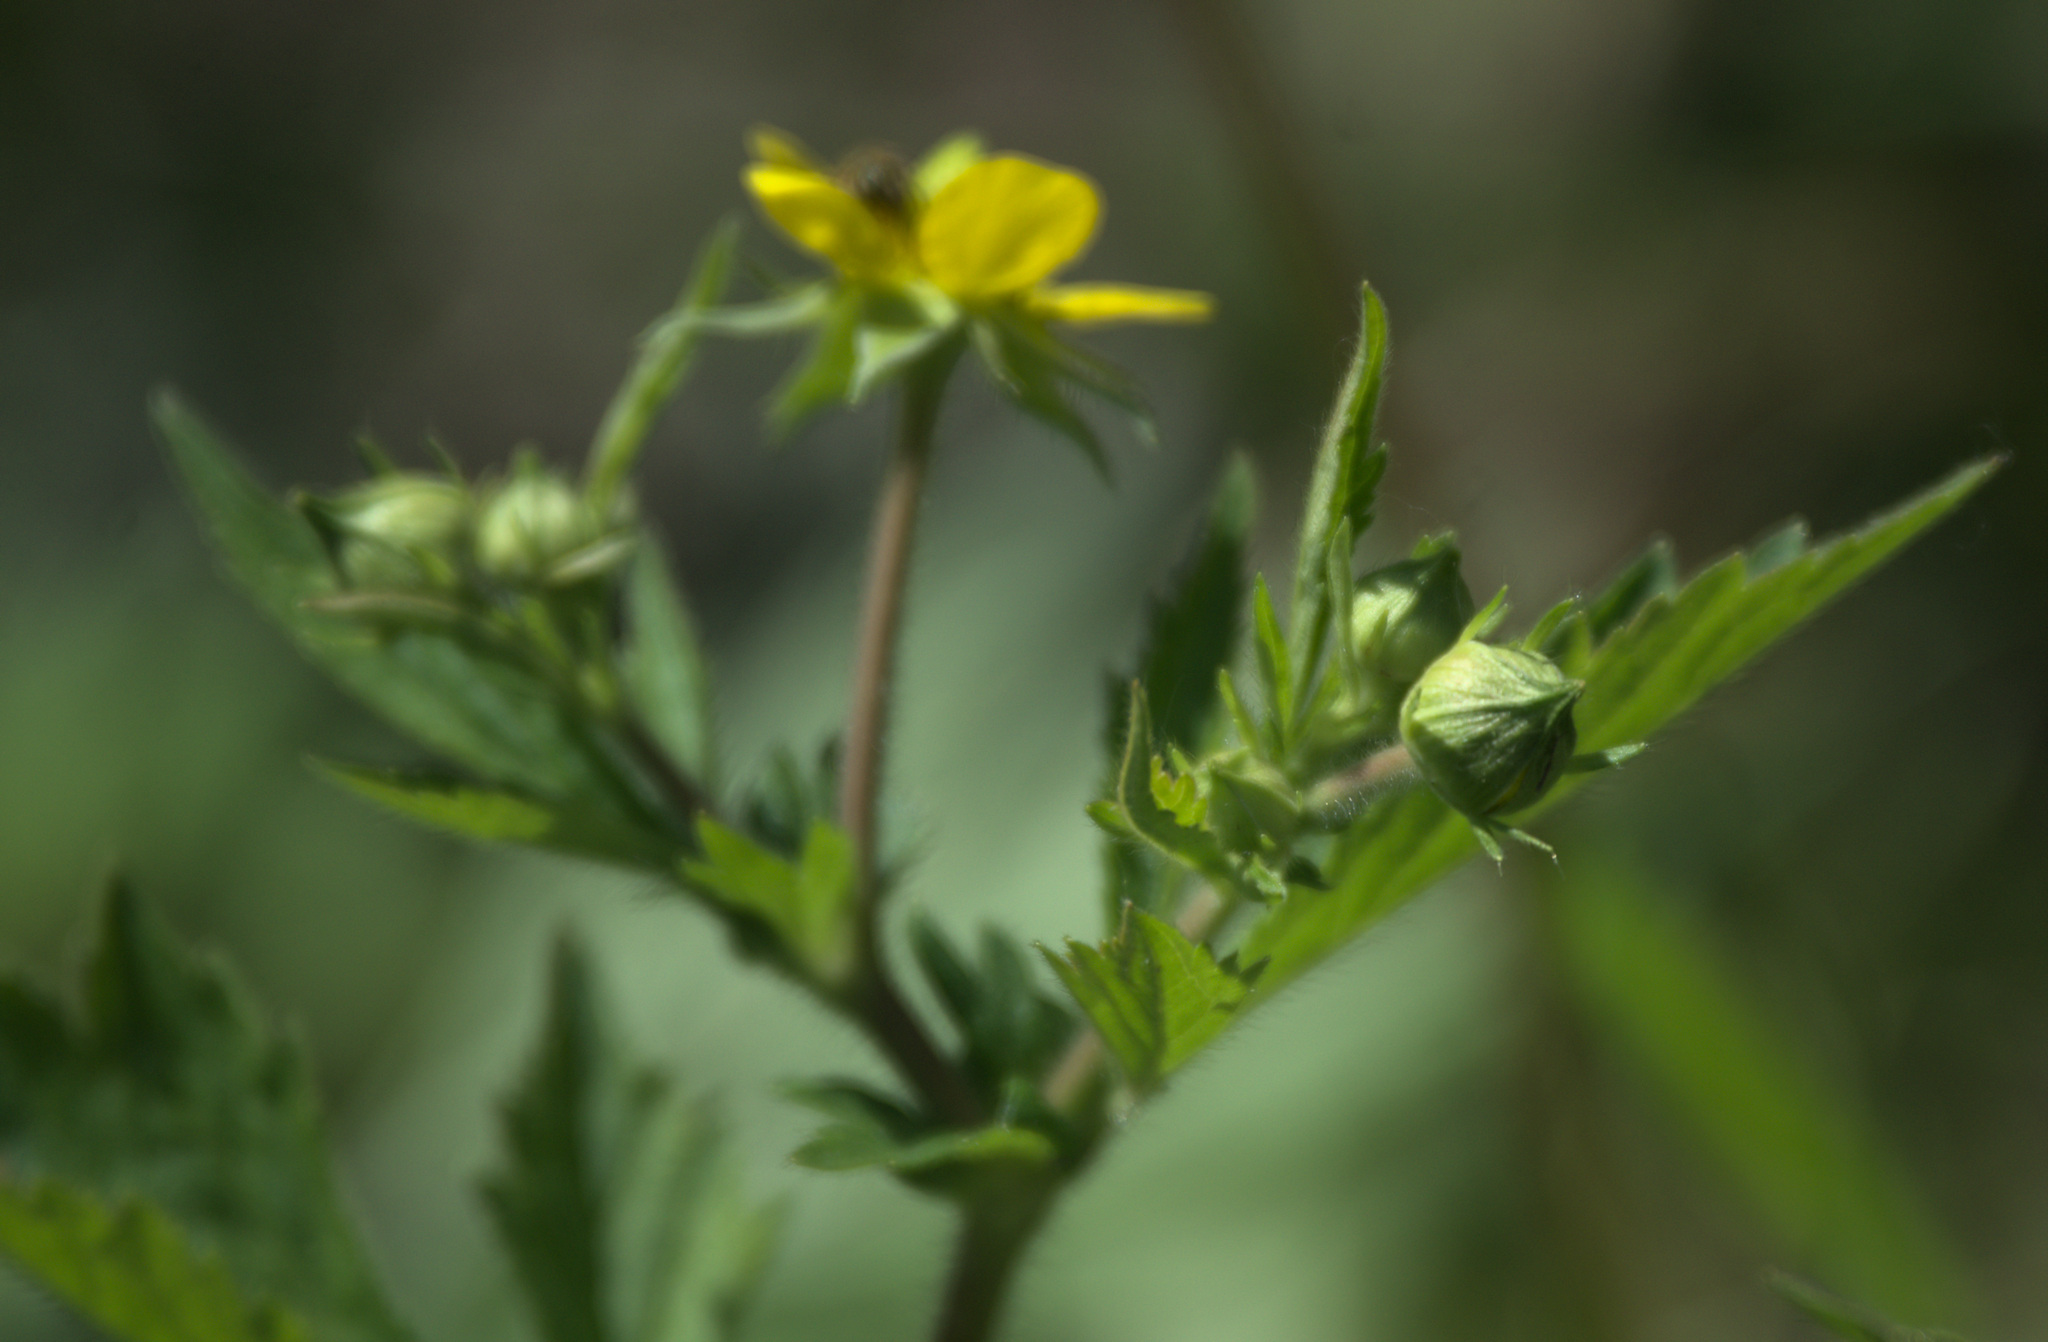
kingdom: Plantae
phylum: Tracheophyta
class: Magnoliopsida
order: Rosales
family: Rosaceae
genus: Geum
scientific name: Geum aleppicum
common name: Yellow avens
